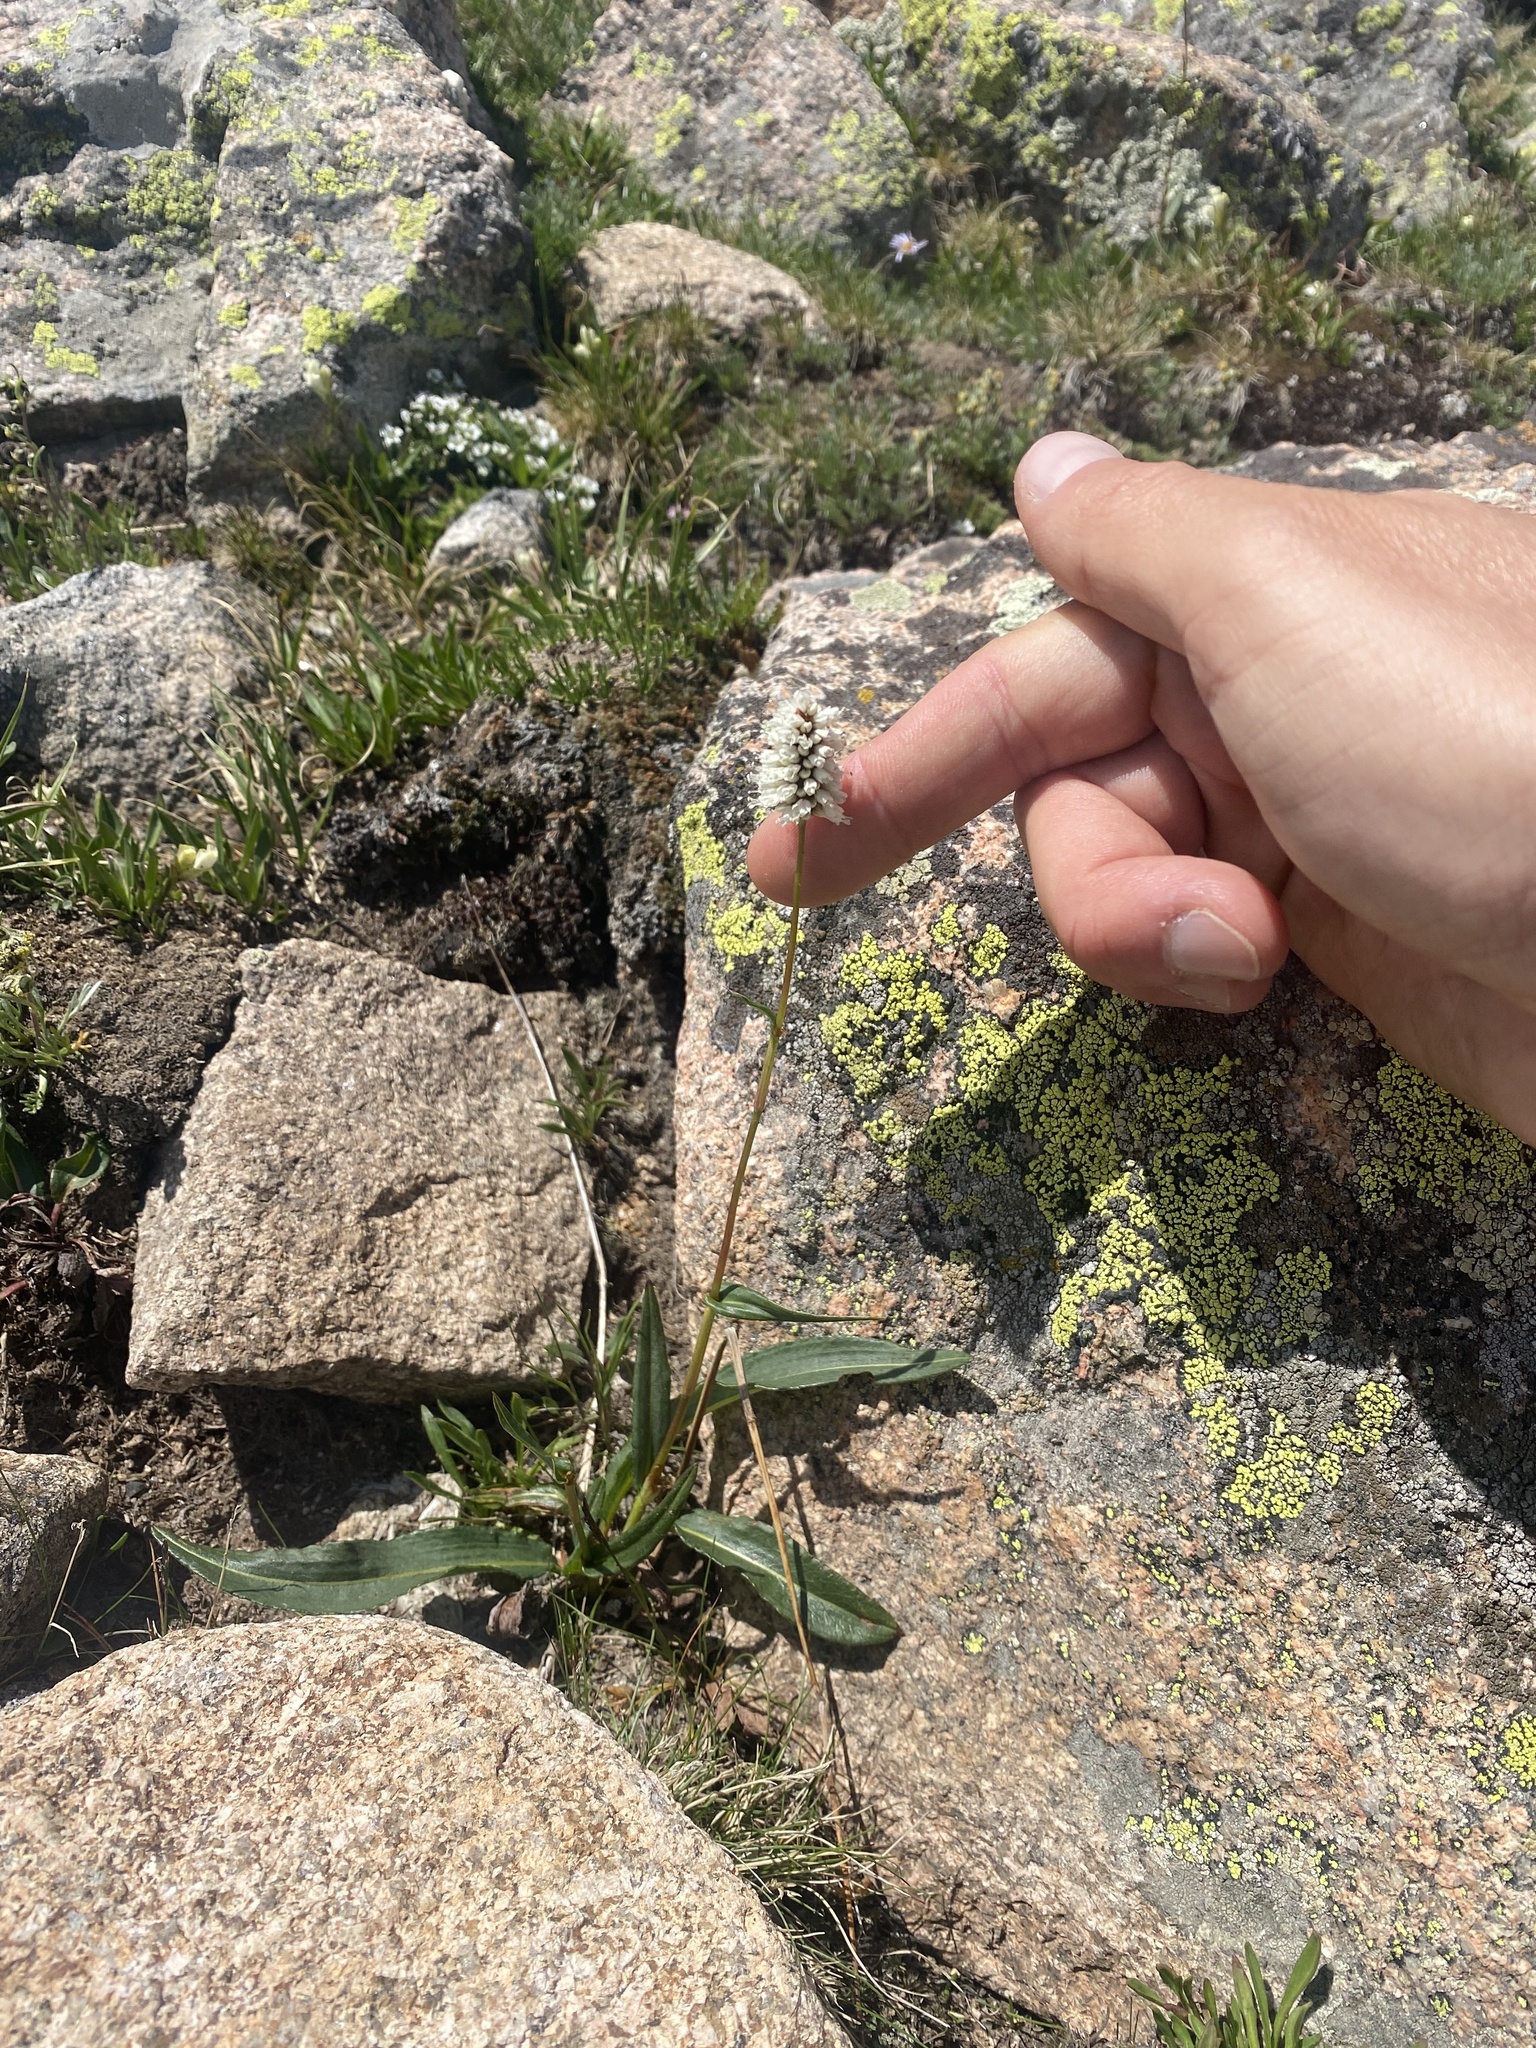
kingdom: Plantae
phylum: Tracheophyta
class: Magnoliopsida
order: Caryophyllales
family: Polygonaceae
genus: Bistorta
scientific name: Bistorta bistortoides
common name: American bistort
